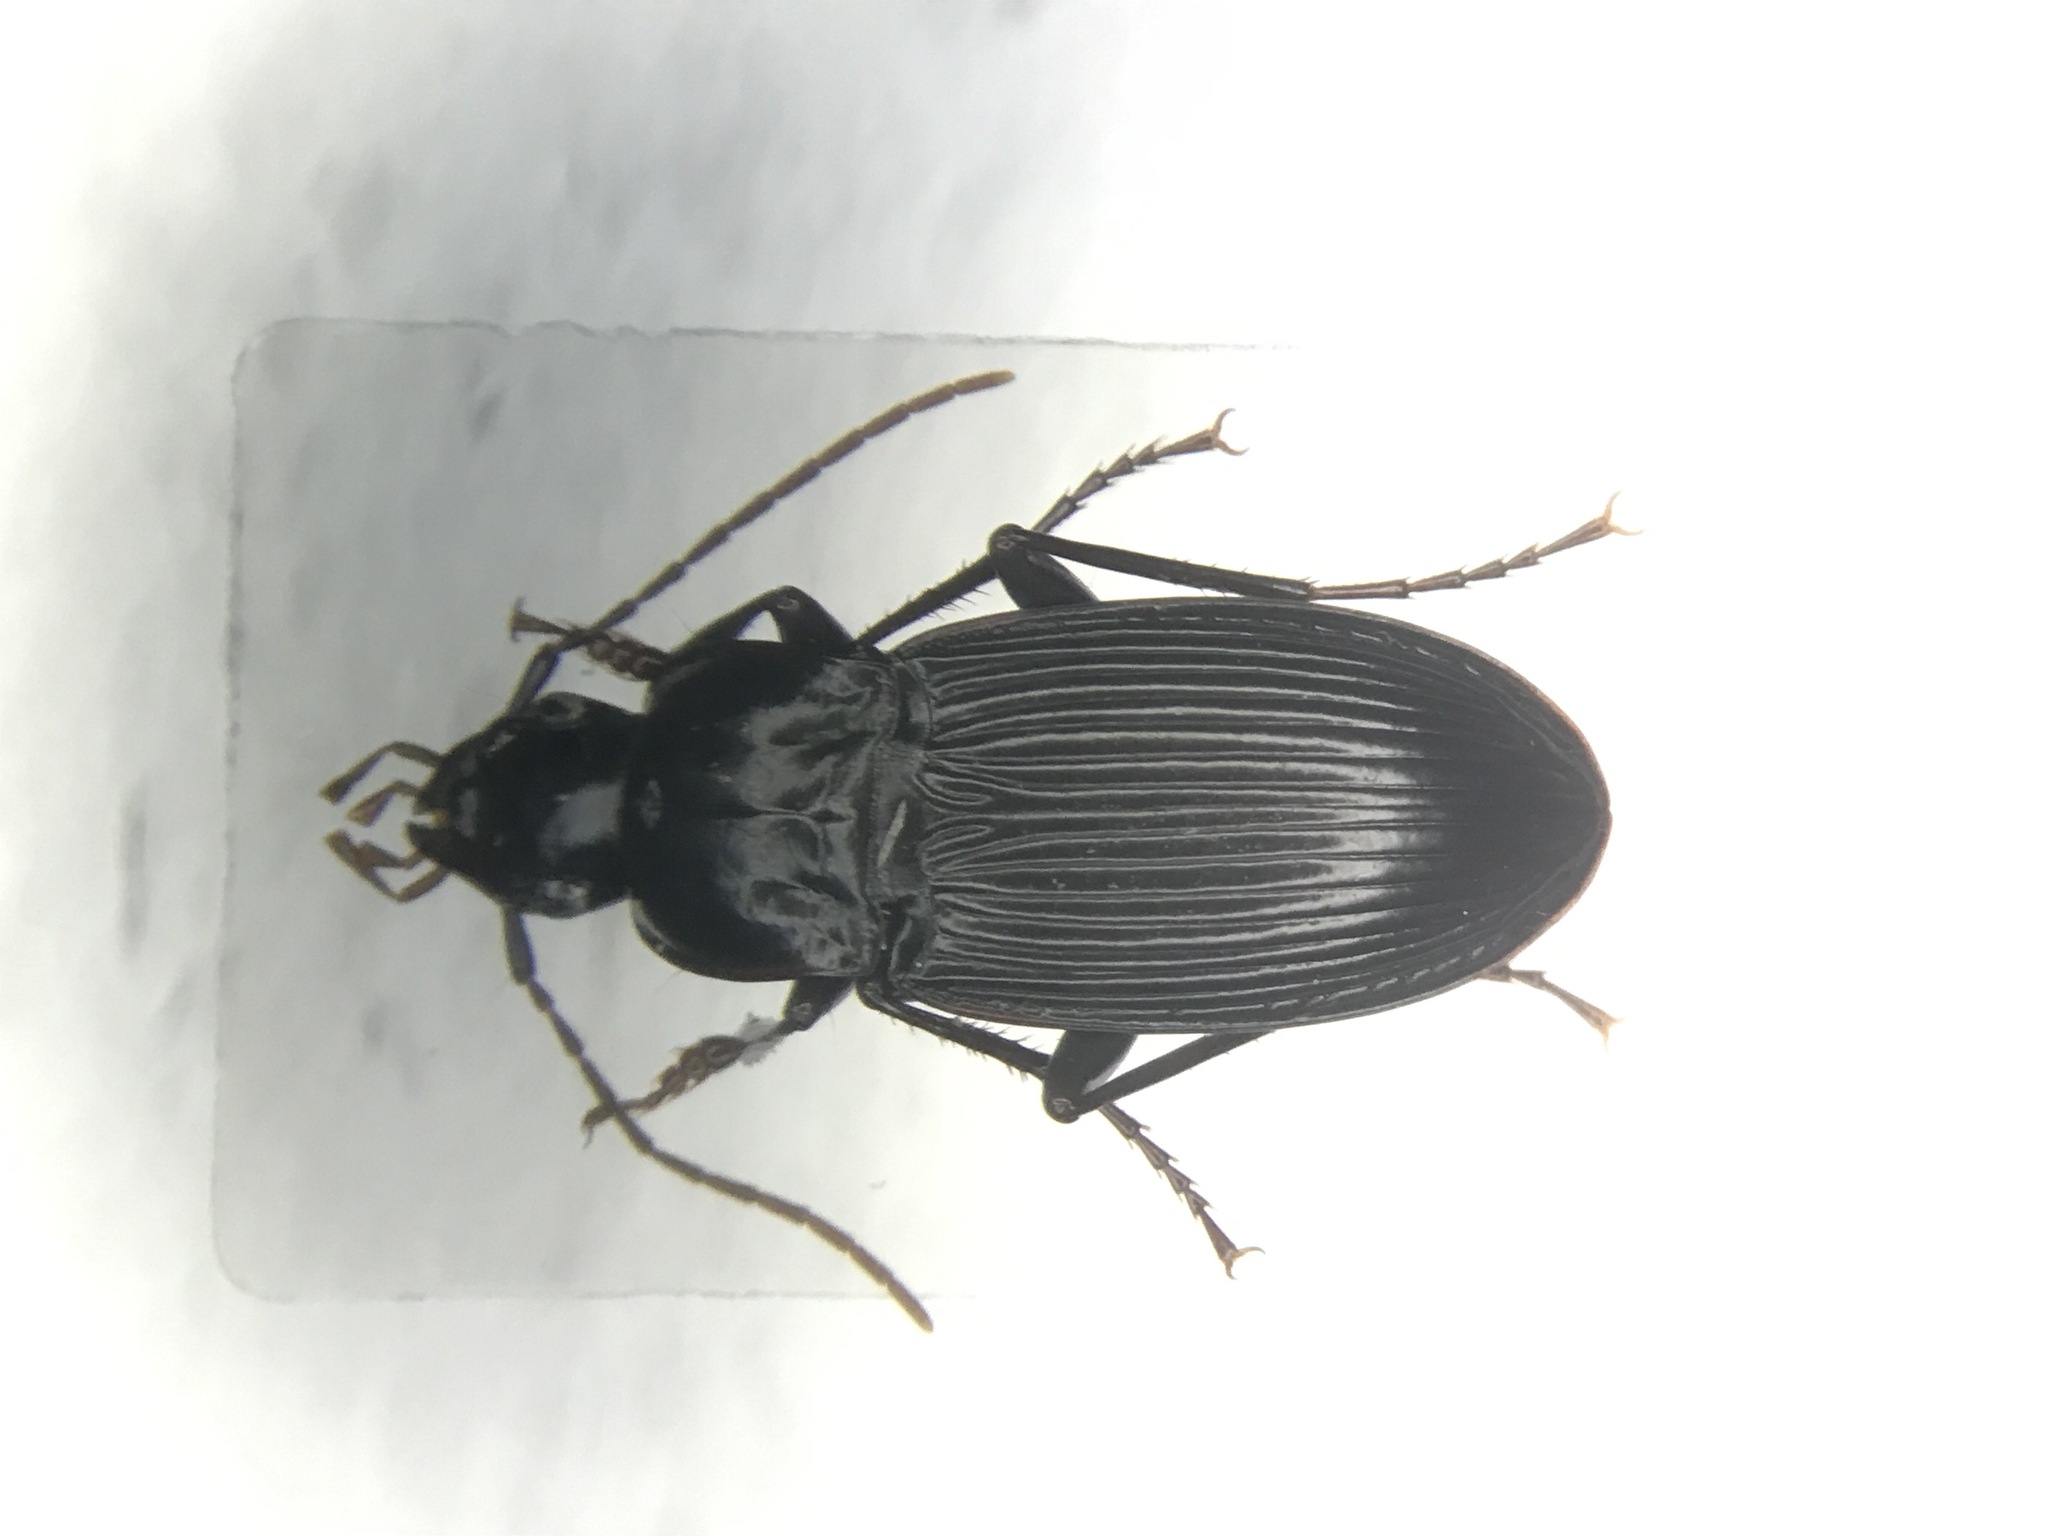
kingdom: Animalia
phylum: Arthropoda
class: Insecta
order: Coleoptera
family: Carabidae
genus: Dicaelus
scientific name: Dicaelus politus
